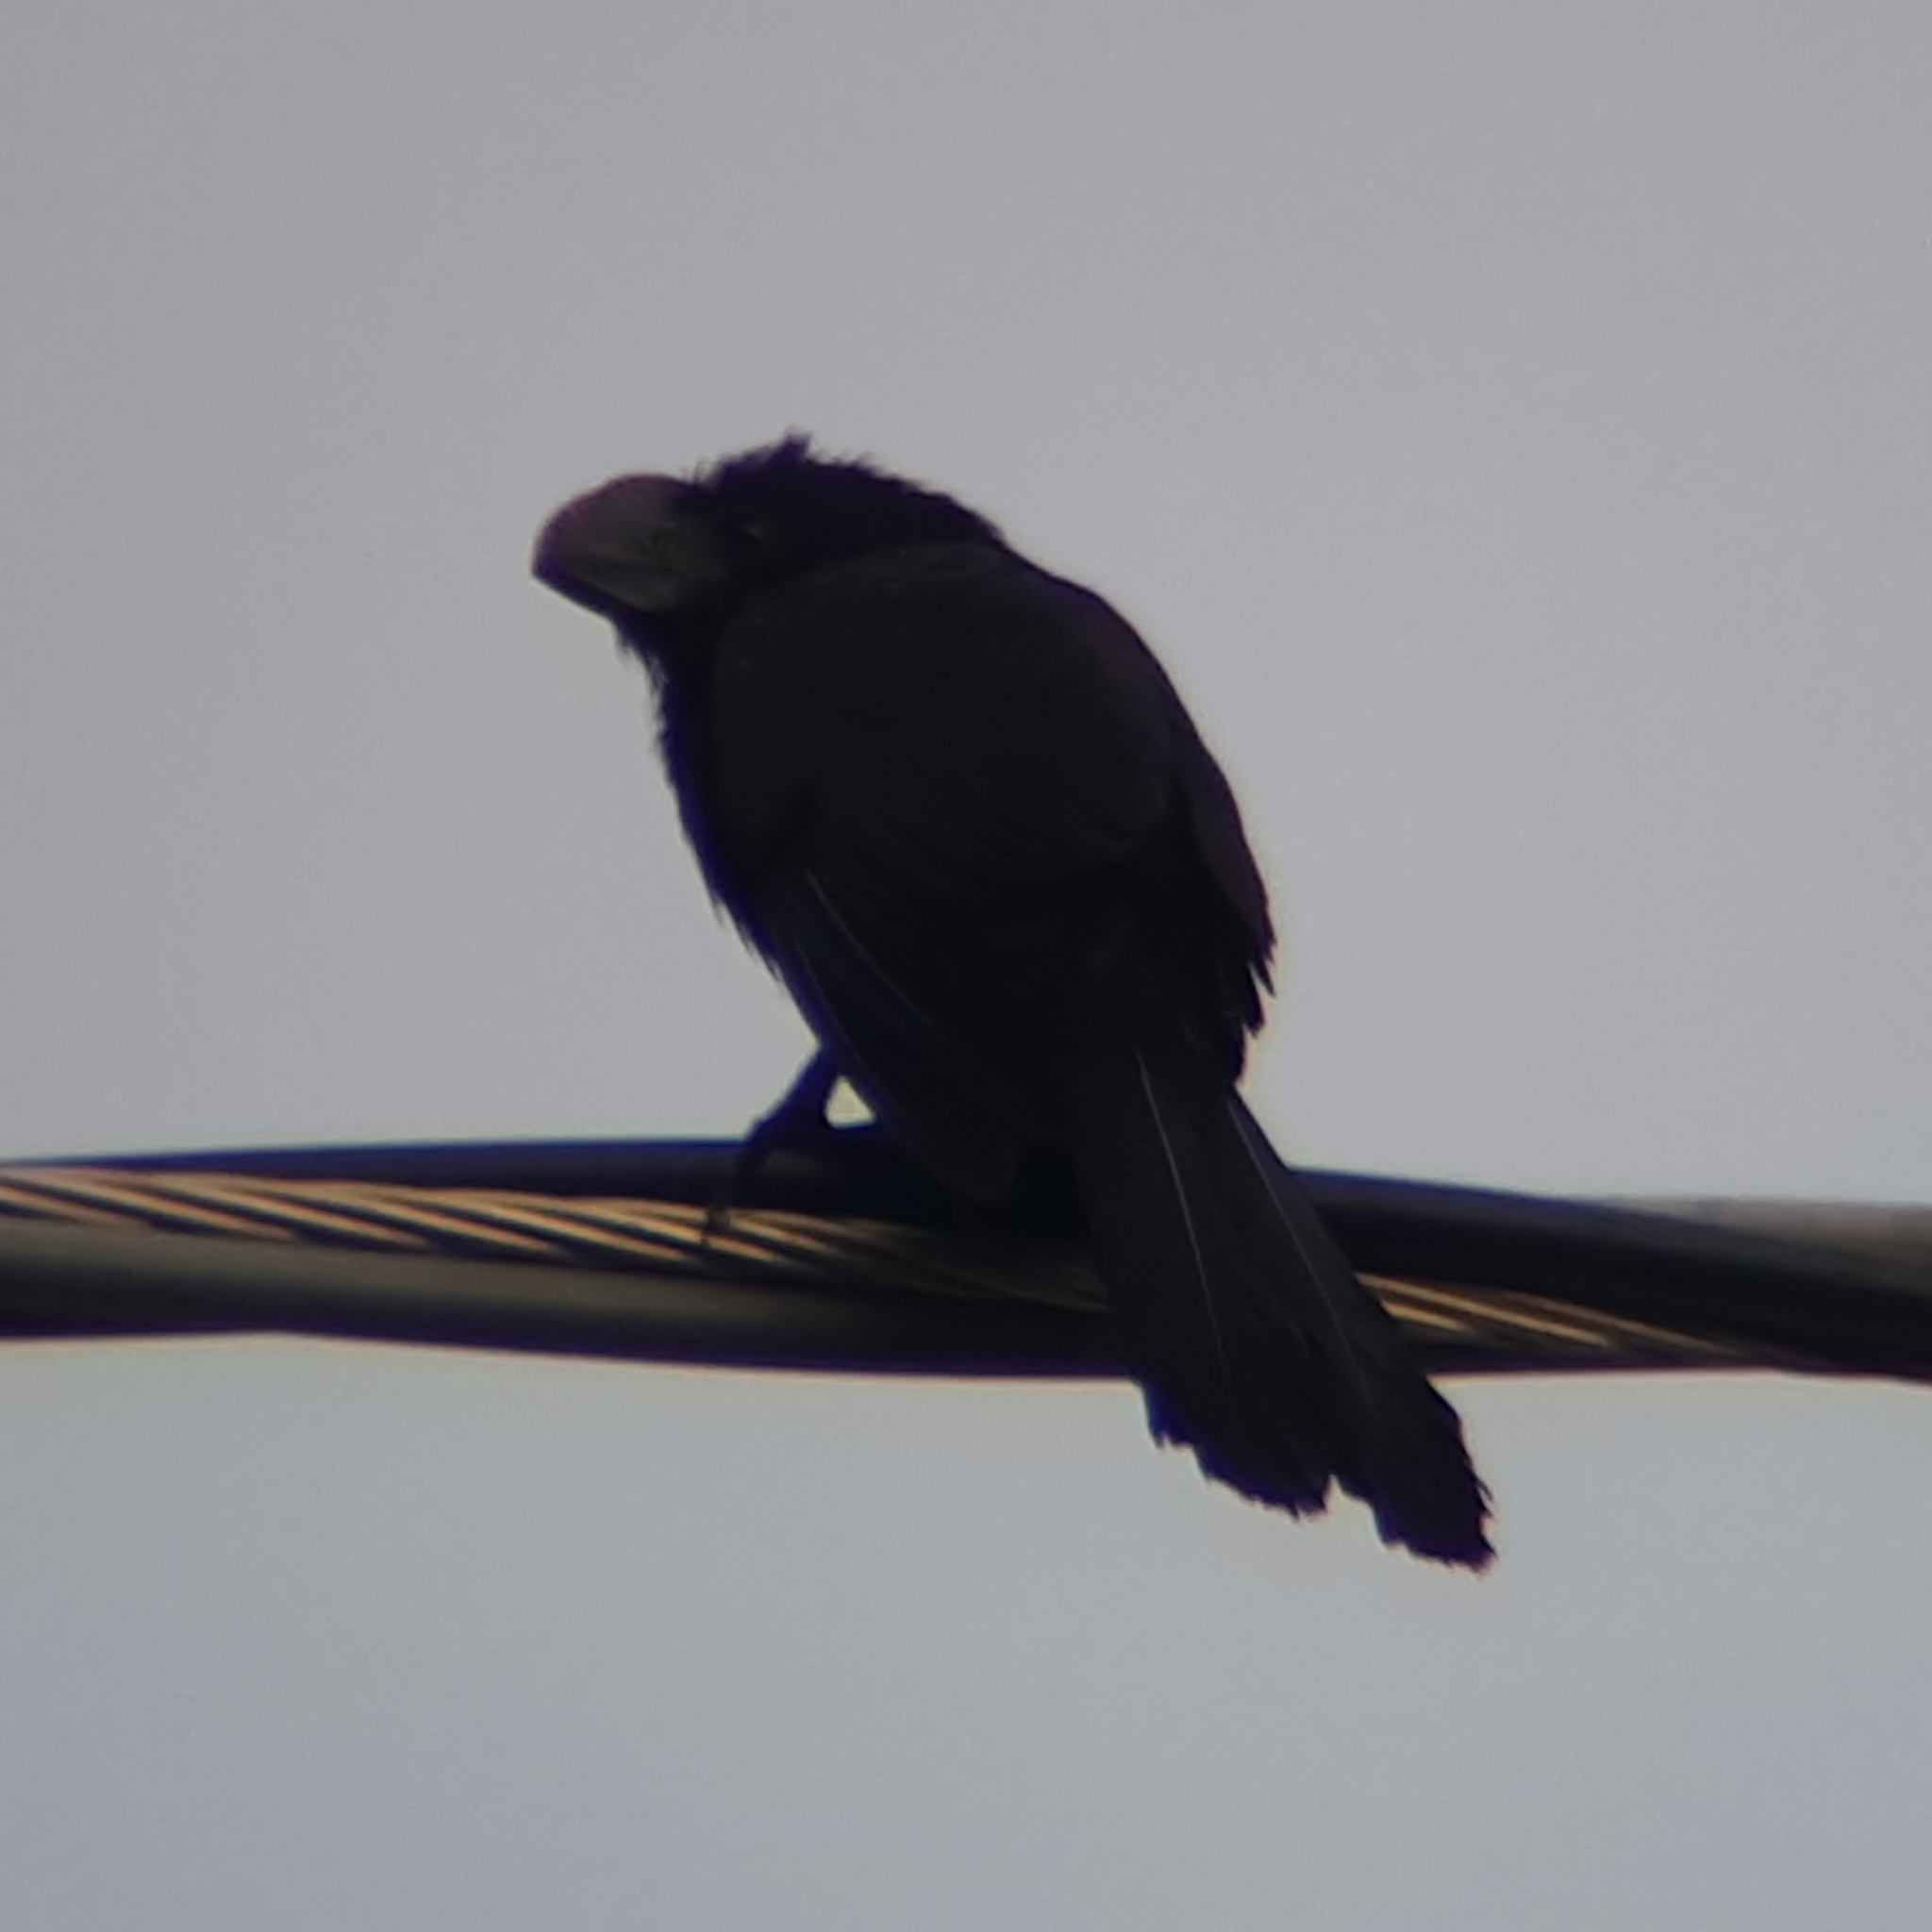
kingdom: Animalia
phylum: Chordata
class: Aves
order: Cuculiformes
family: Cuculidae
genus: Crotophaga
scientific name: Crotophaga ani
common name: Smooth-billed ani
